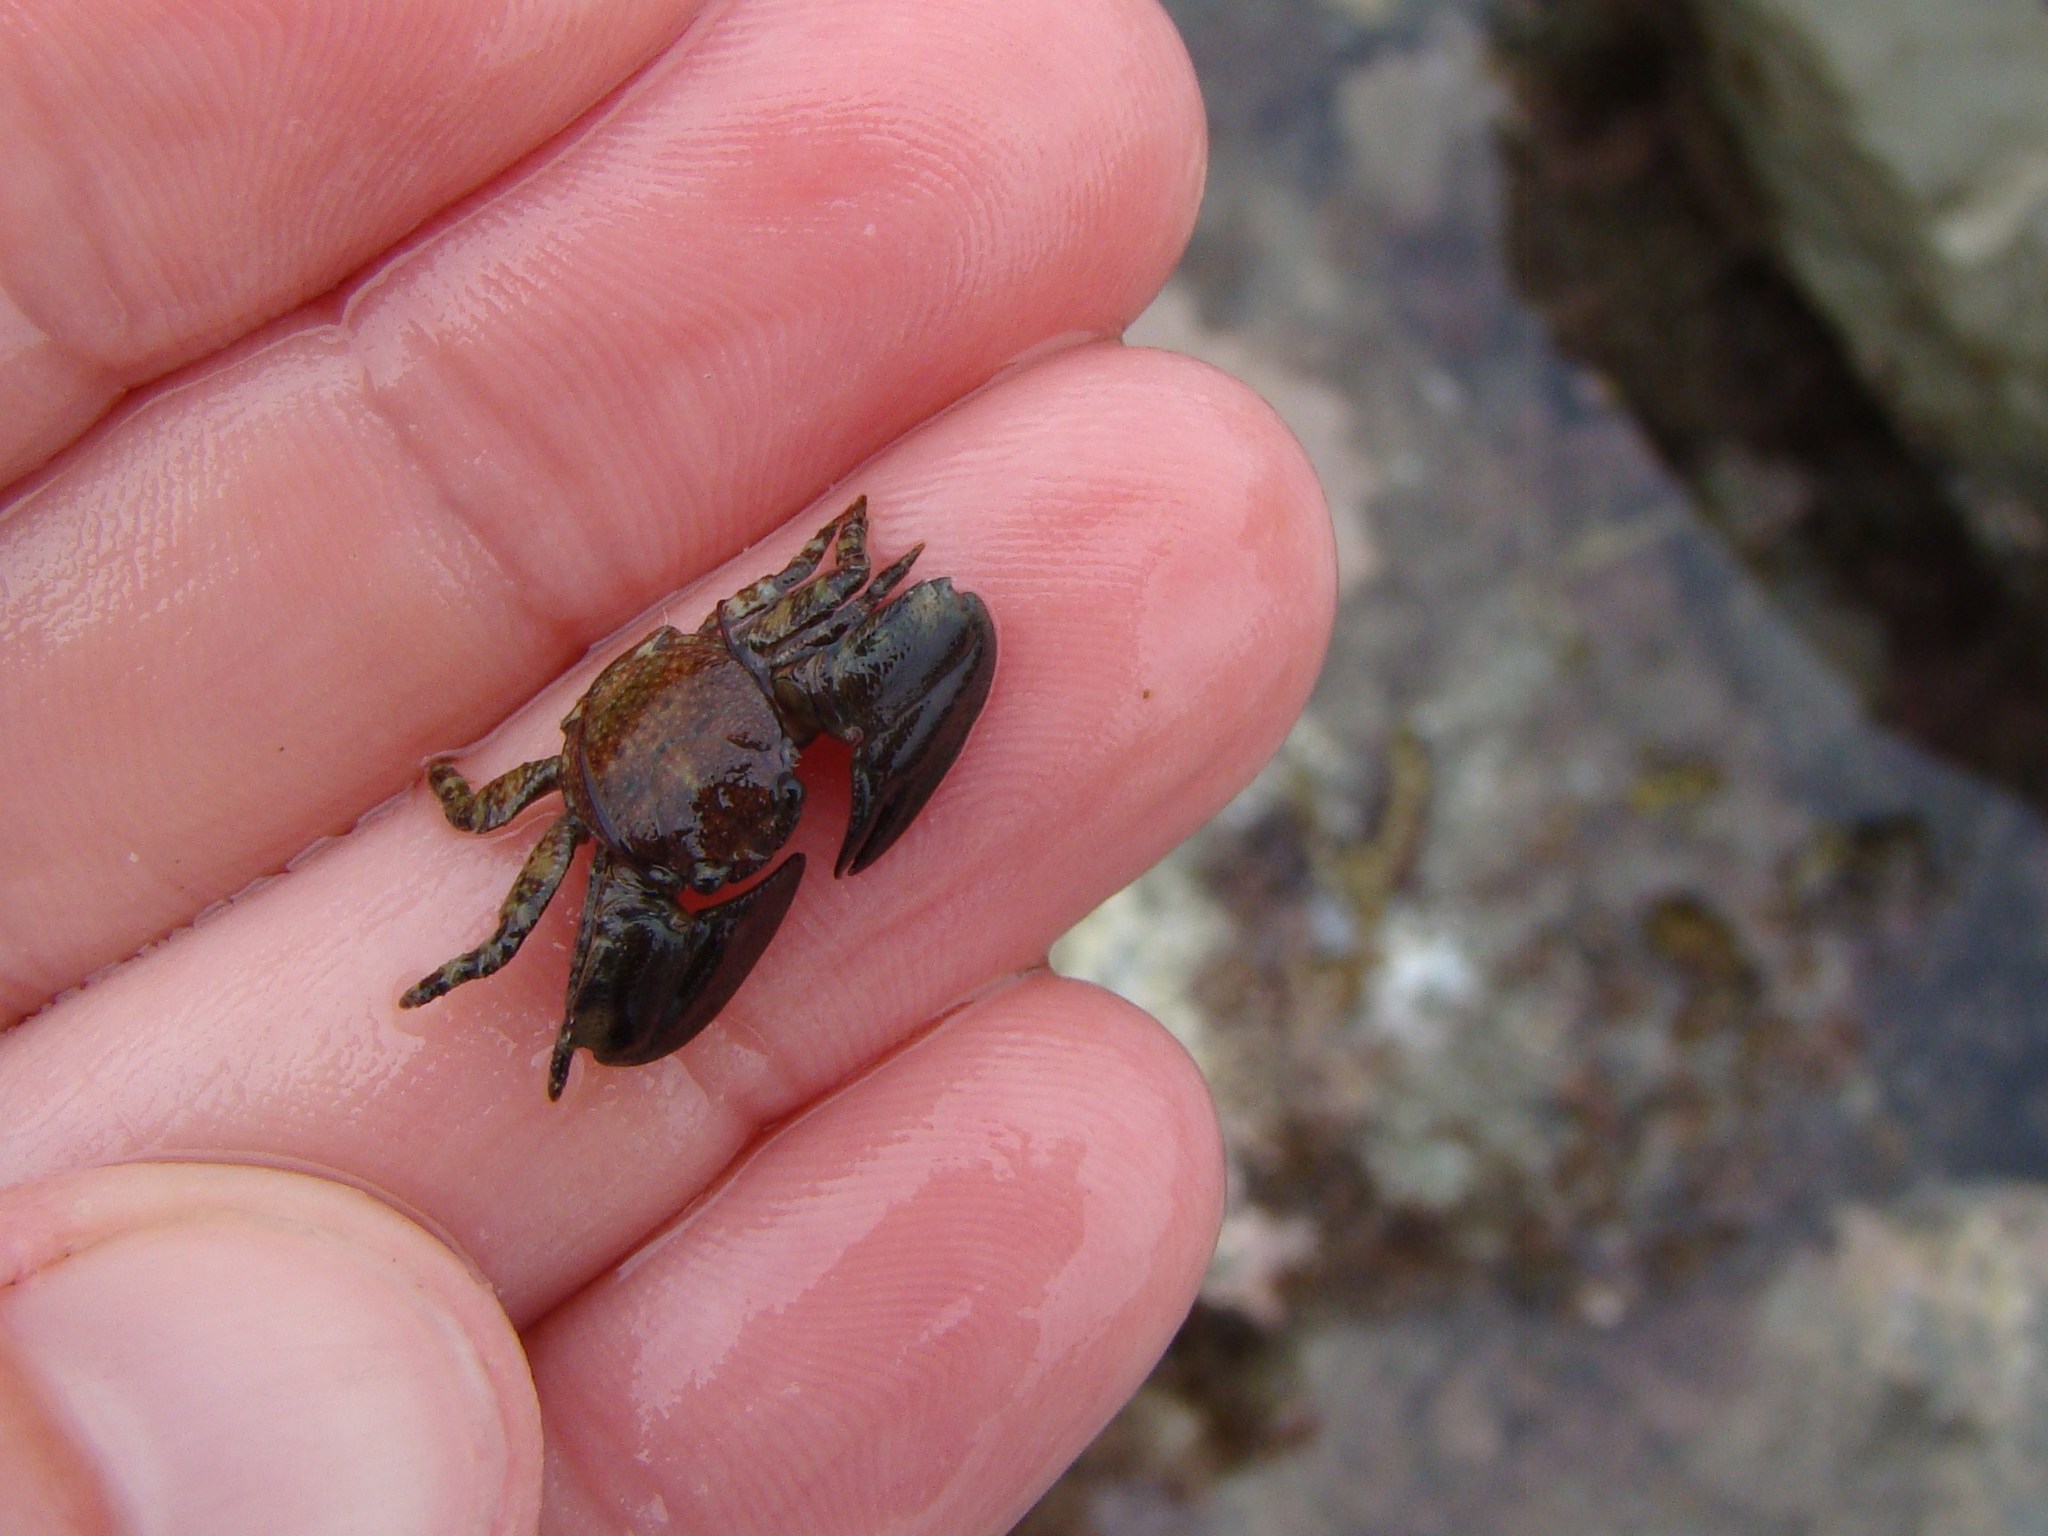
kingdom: Animalia
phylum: Arthropoda
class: Malacostraca
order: Decapoda
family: Porcellanidae
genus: Petrolisthes
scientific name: Petrolisthes elongatus
